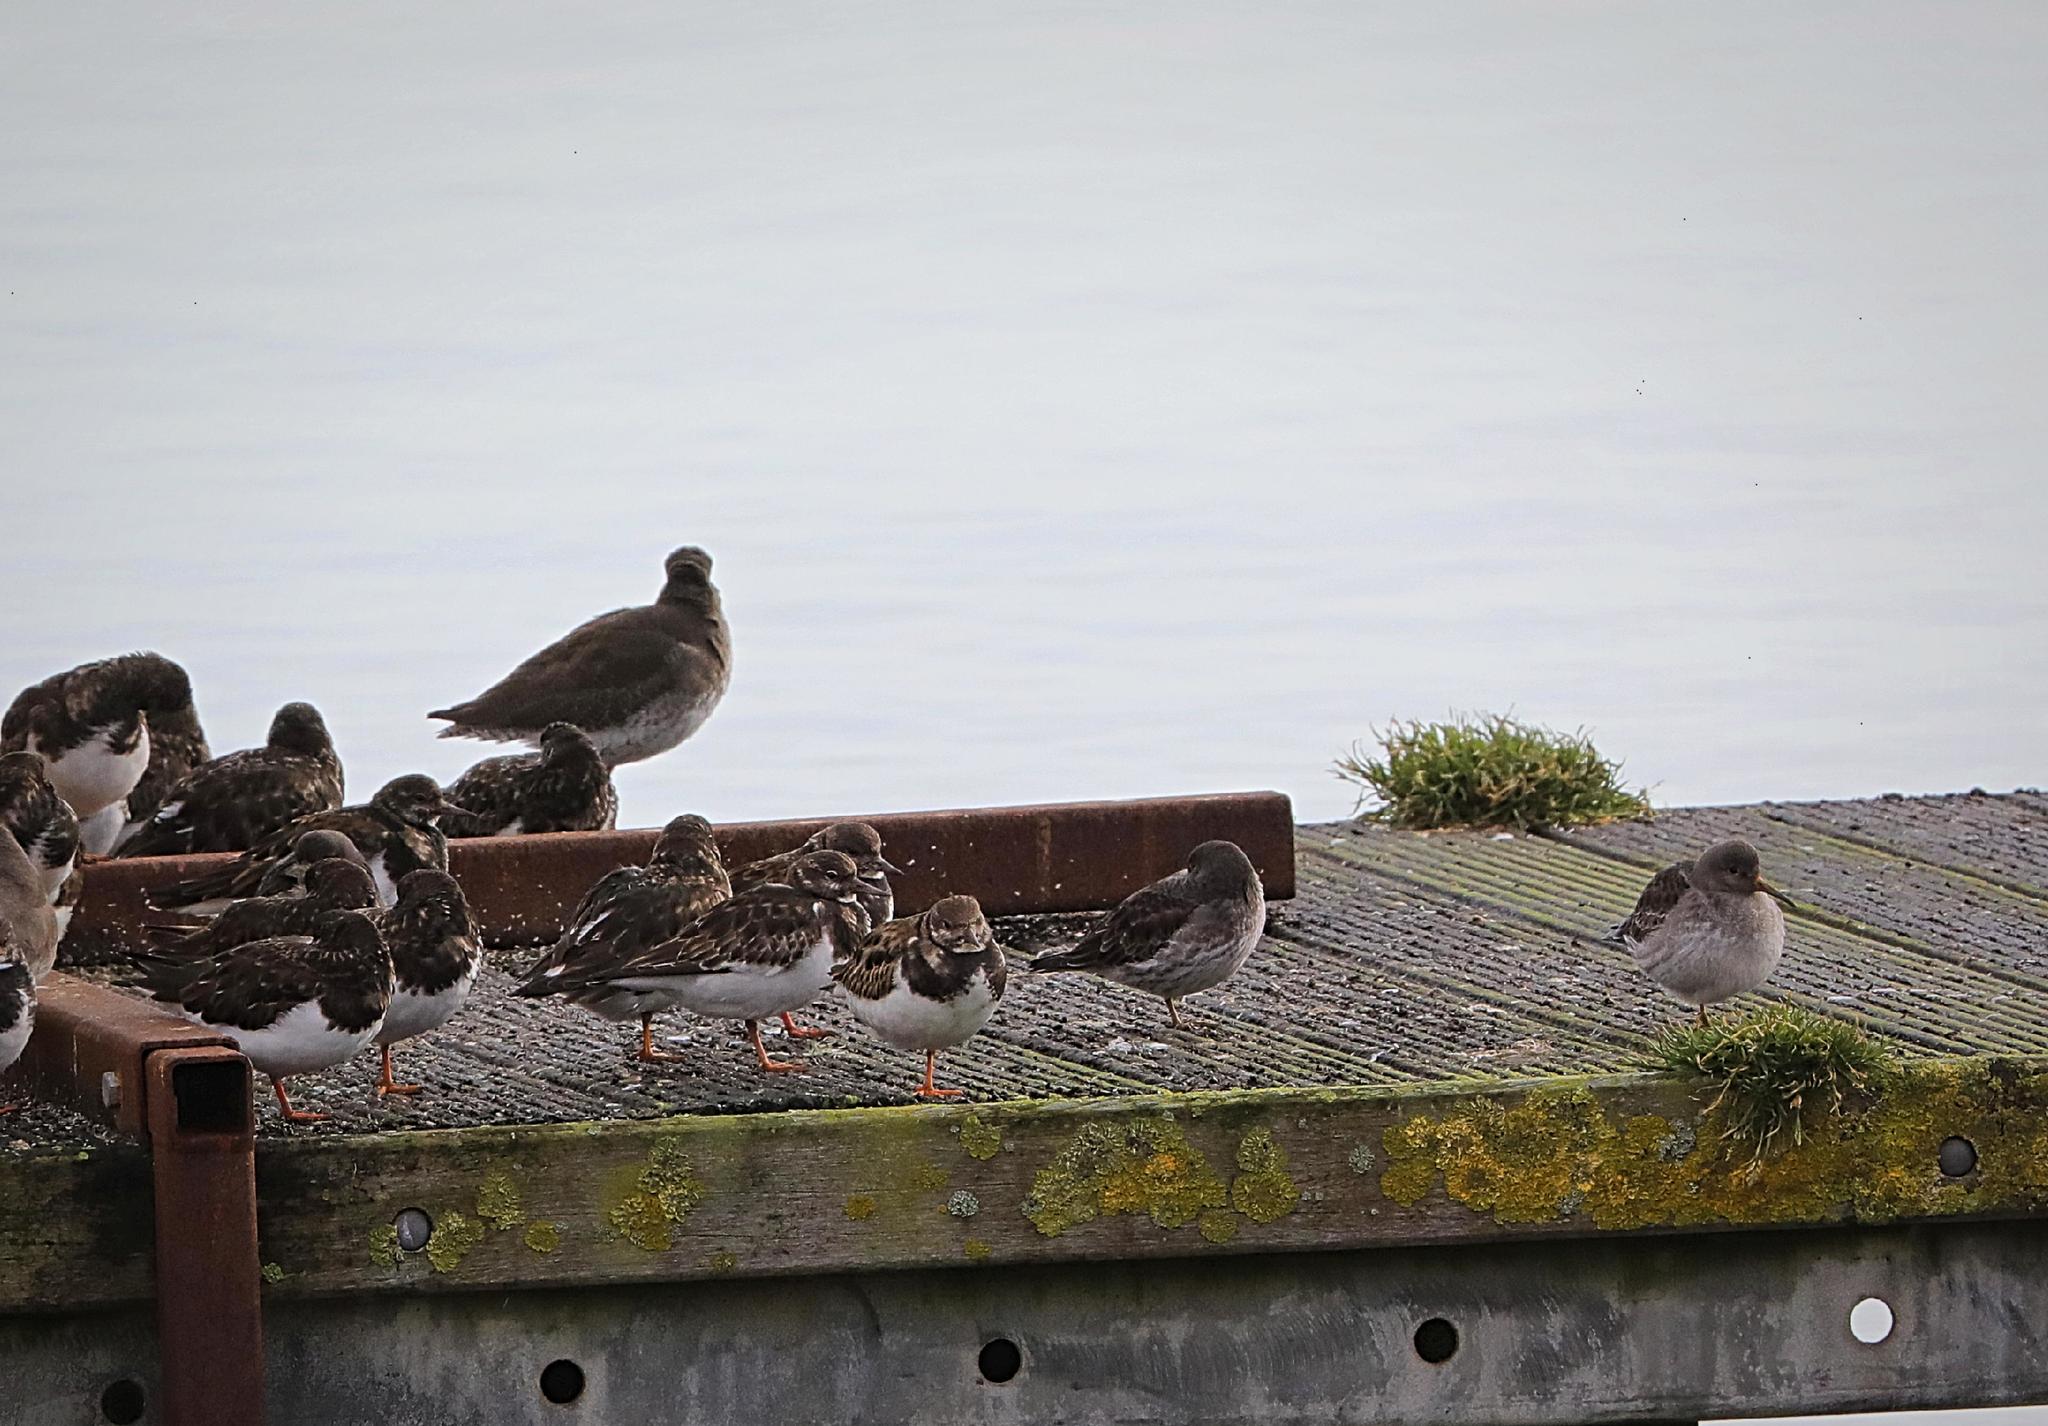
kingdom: Animalia
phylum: Chordata
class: Aves
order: Charadriiformes
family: Scolopacidae
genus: Calidris
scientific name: Calidris maritima
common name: Purple sandpiper
